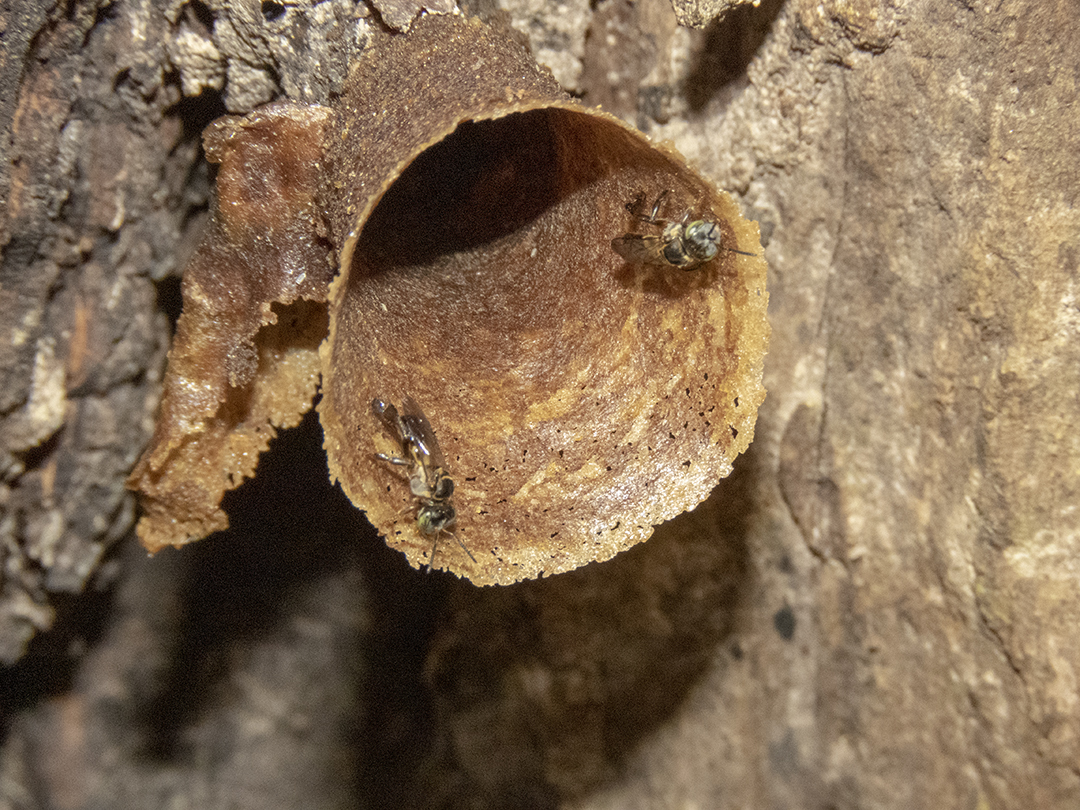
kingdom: Animalia
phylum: Arthropoda
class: Insecta
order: Hymenoptera
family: Apidae
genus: Lepidotrigona
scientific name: Lepidotrigona terminata
